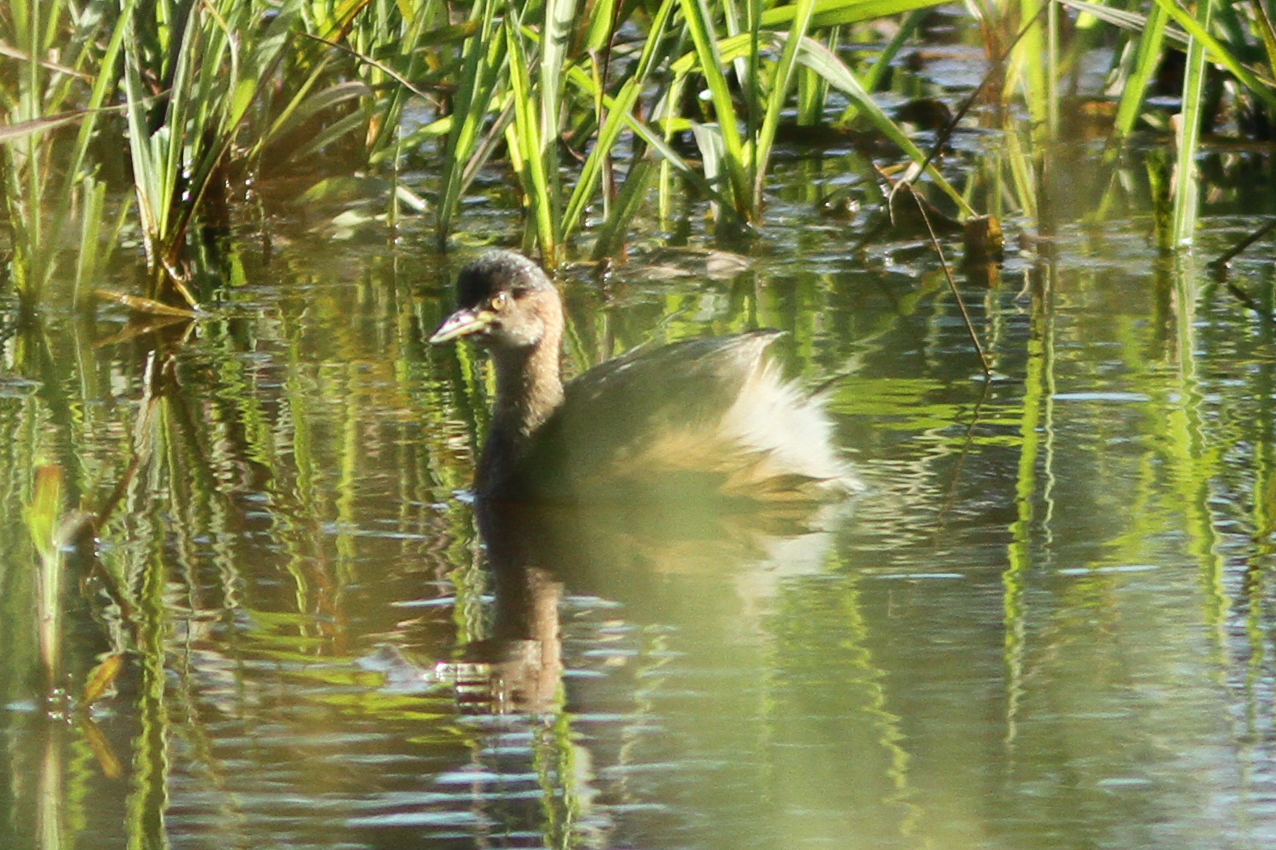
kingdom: Animalia
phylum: Chordata
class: Aves
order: Podicipediformes
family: Podicipedidae
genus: Tachybaptus
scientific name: Tachybaptus novaehollandiae
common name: Australasian grebe
